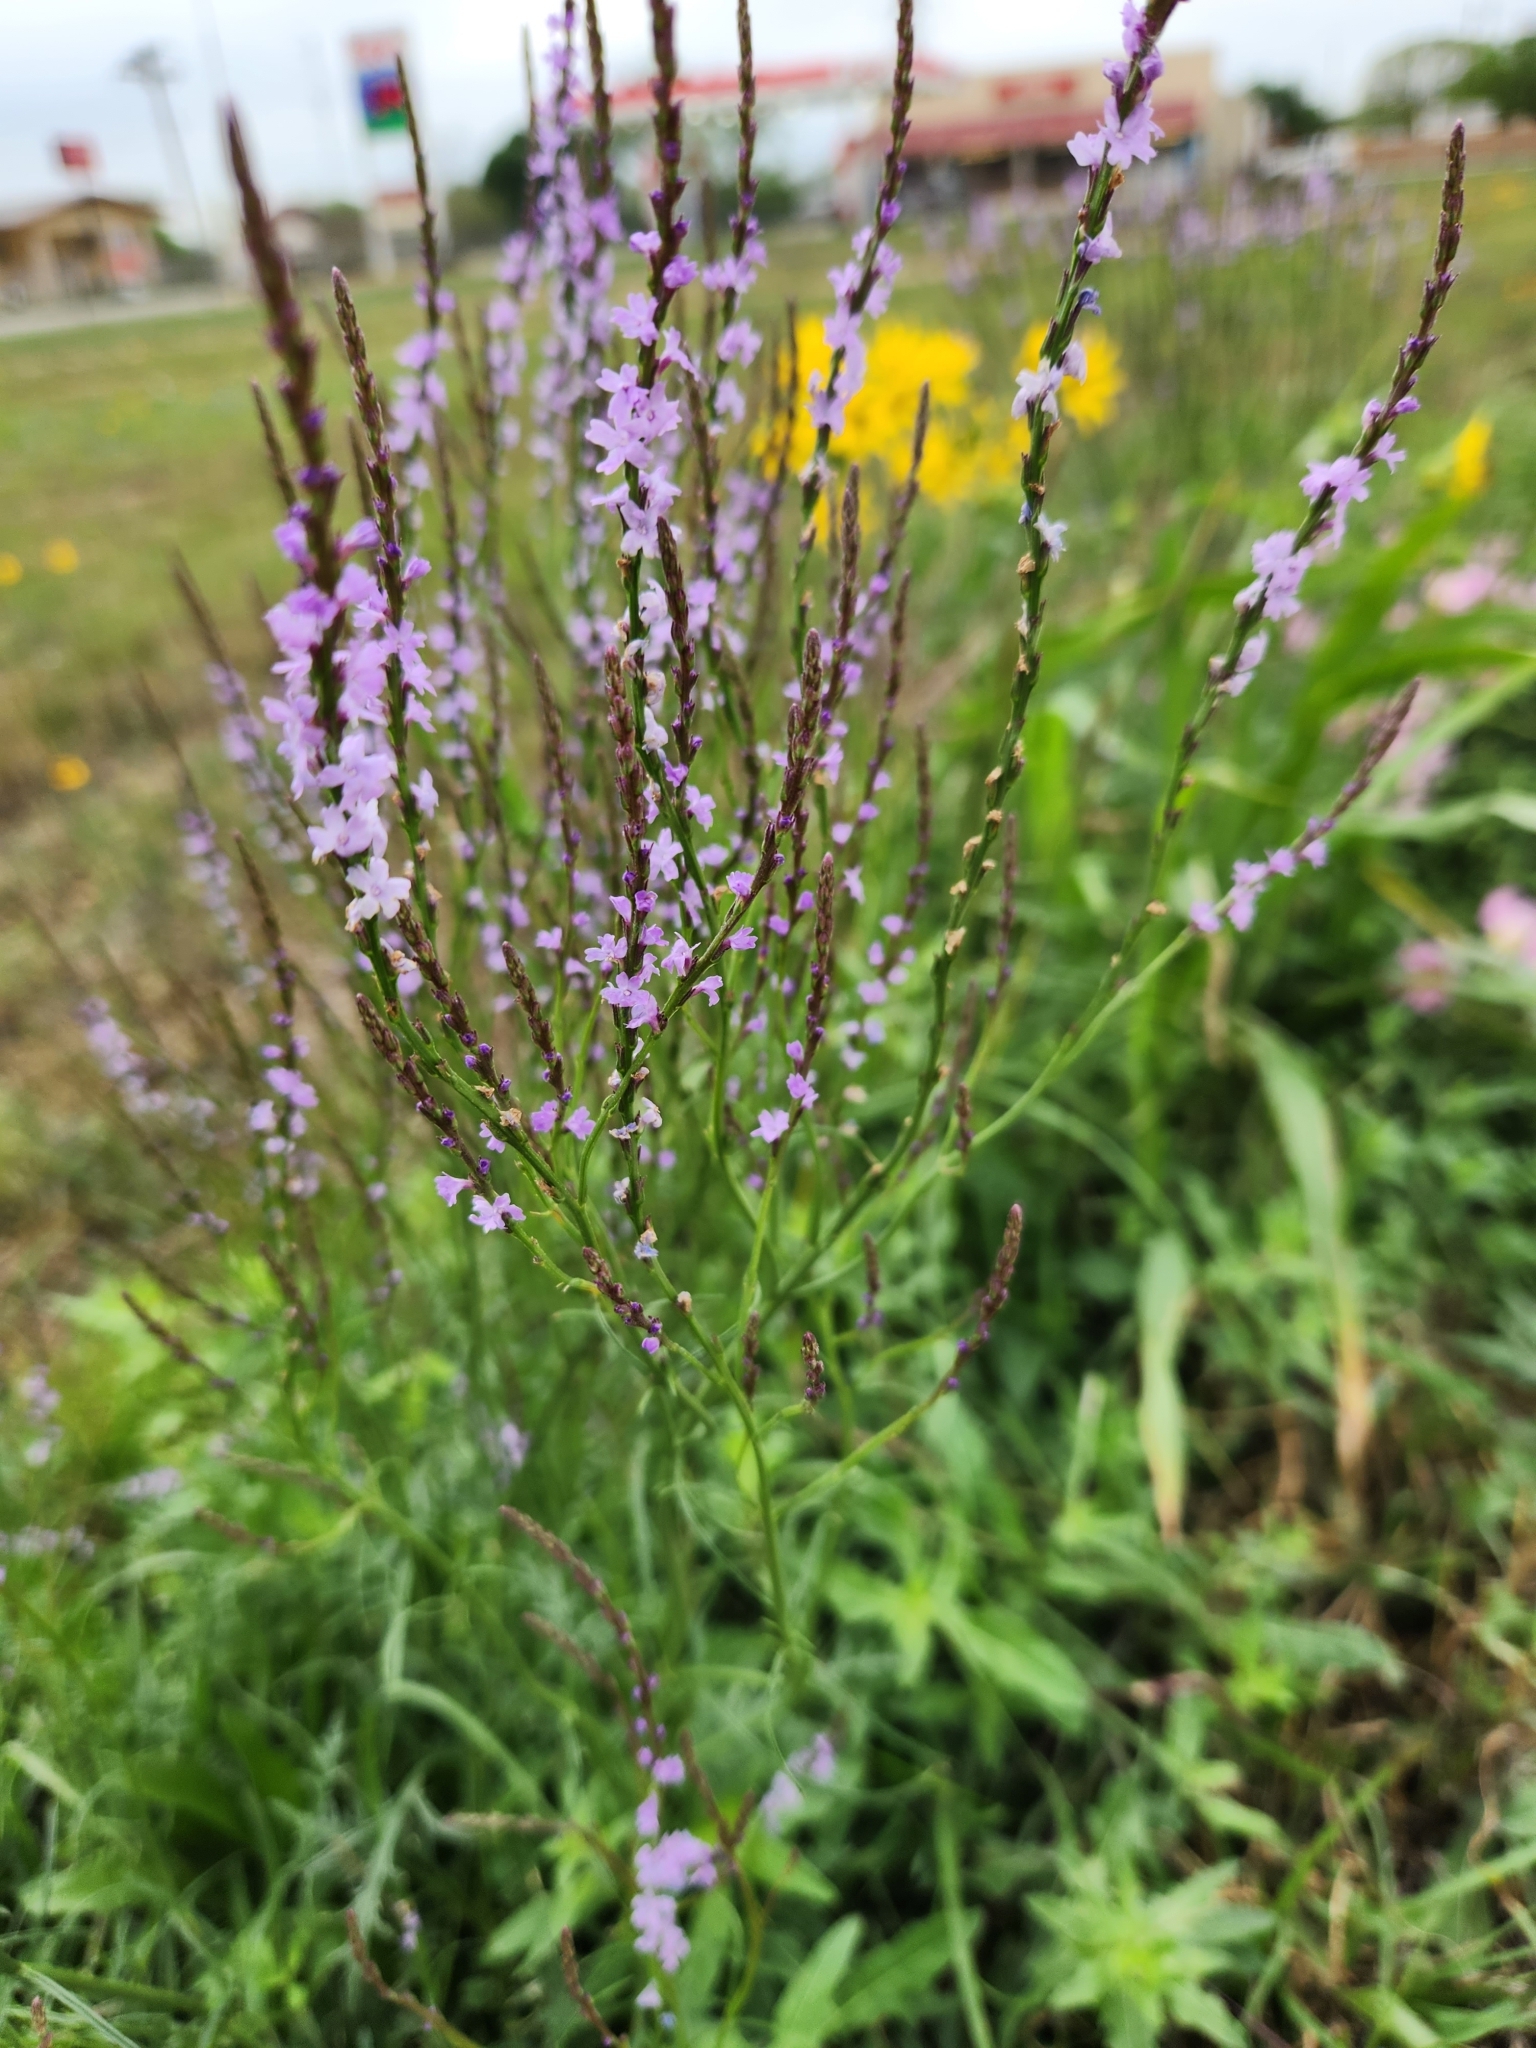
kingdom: Plantae
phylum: Tracheophyta
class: Magnoliopsida
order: Lamiales
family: Verbenaceae
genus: Verbena
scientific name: Verbena halei
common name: Texas vervain
